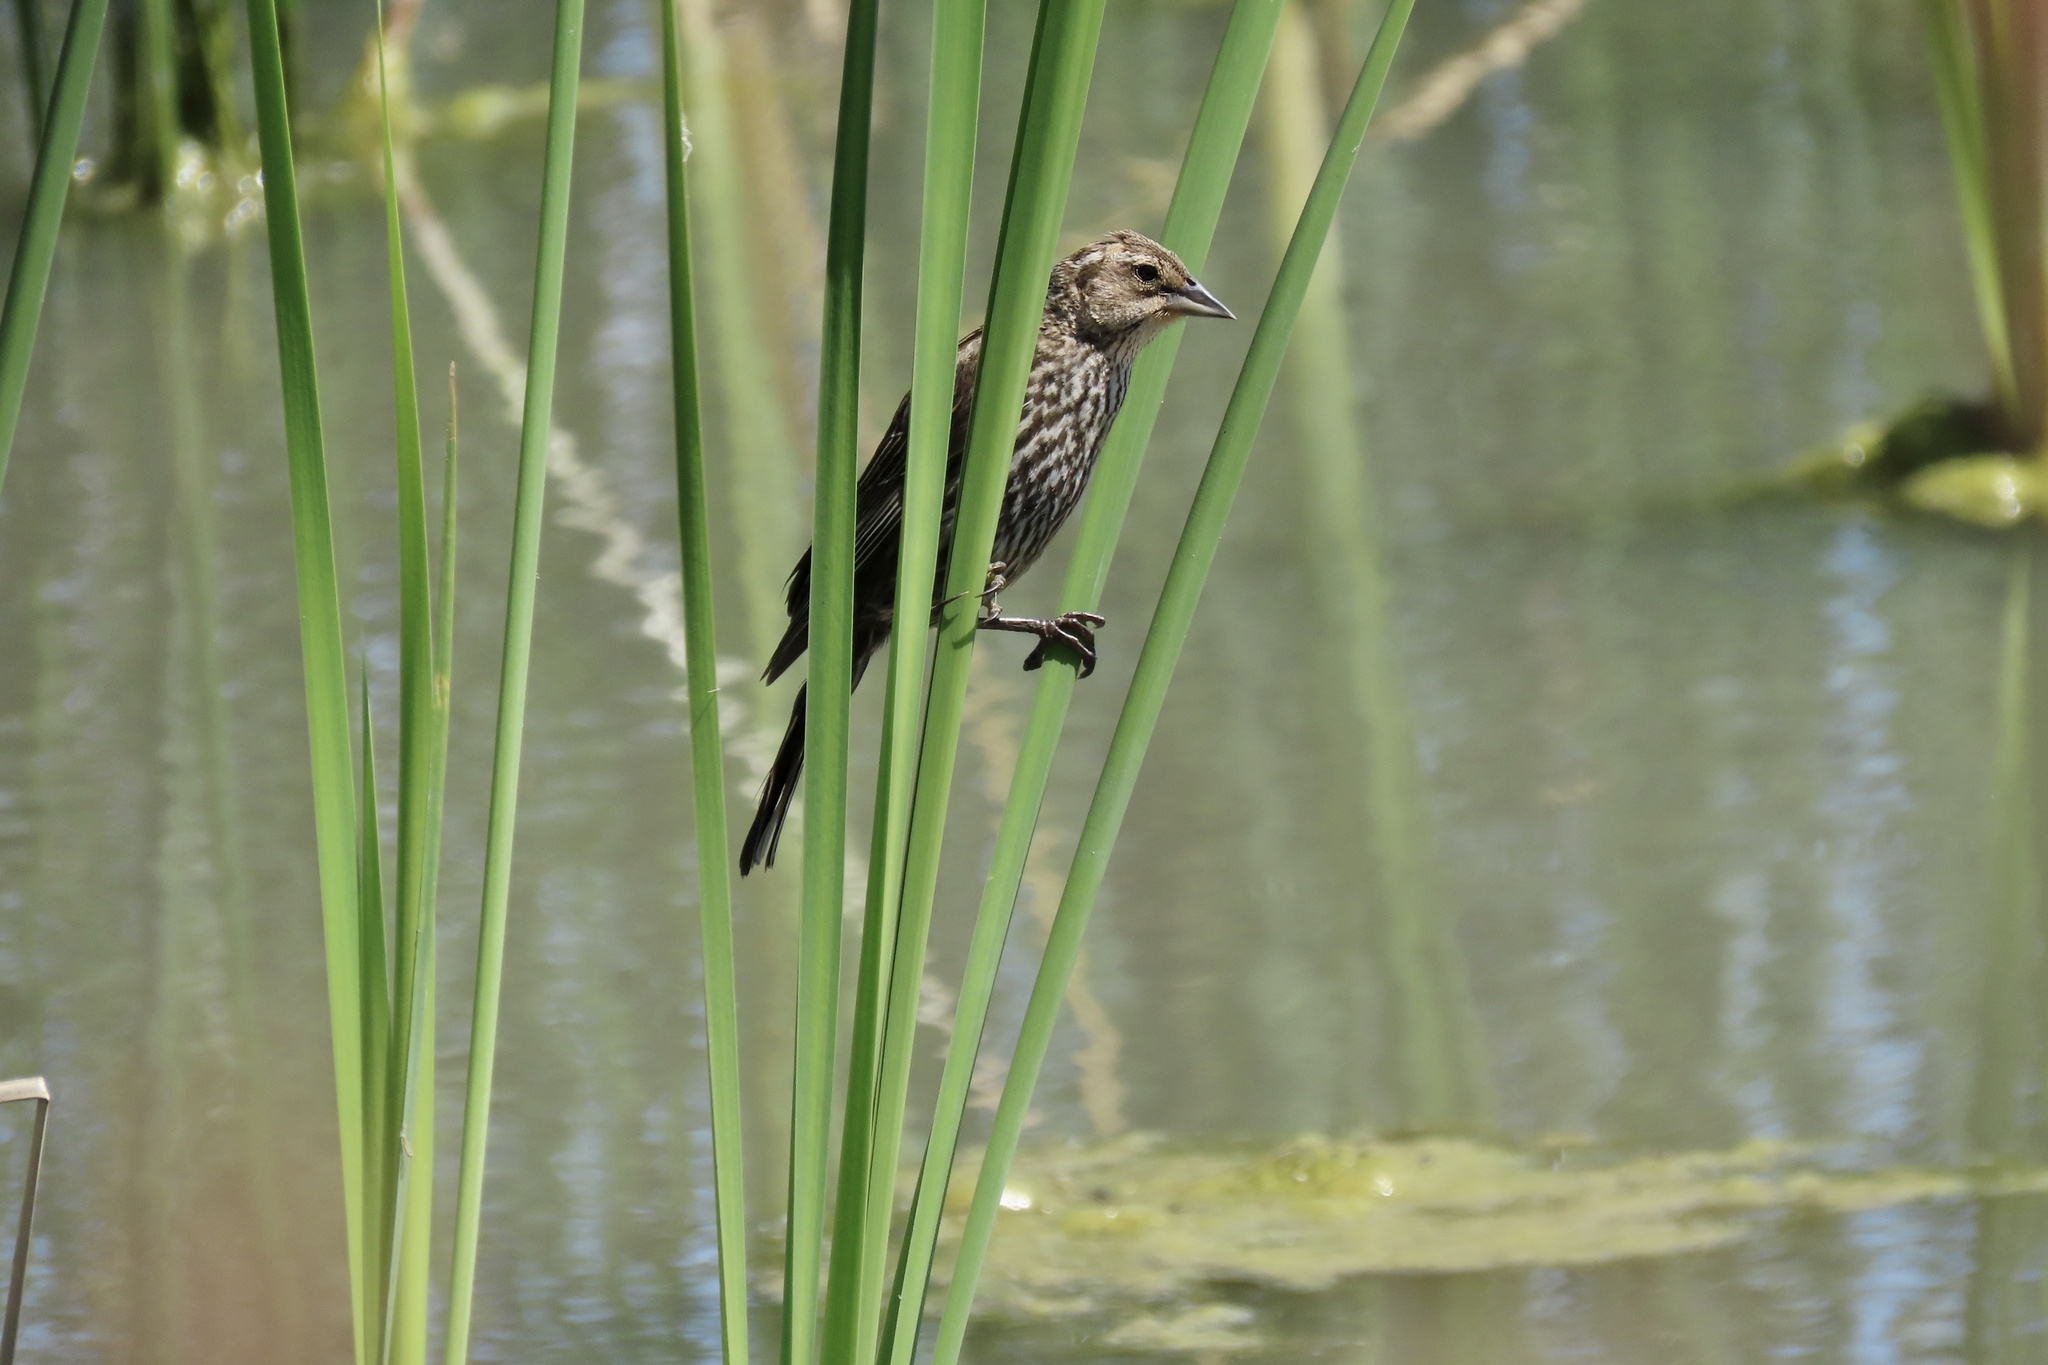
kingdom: Animalia
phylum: Chordata
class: Aves
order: Passeriformes
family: Icteridae
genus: Agelaius
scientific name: Agelaius phoeniceus
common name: Red-winged blackbird
